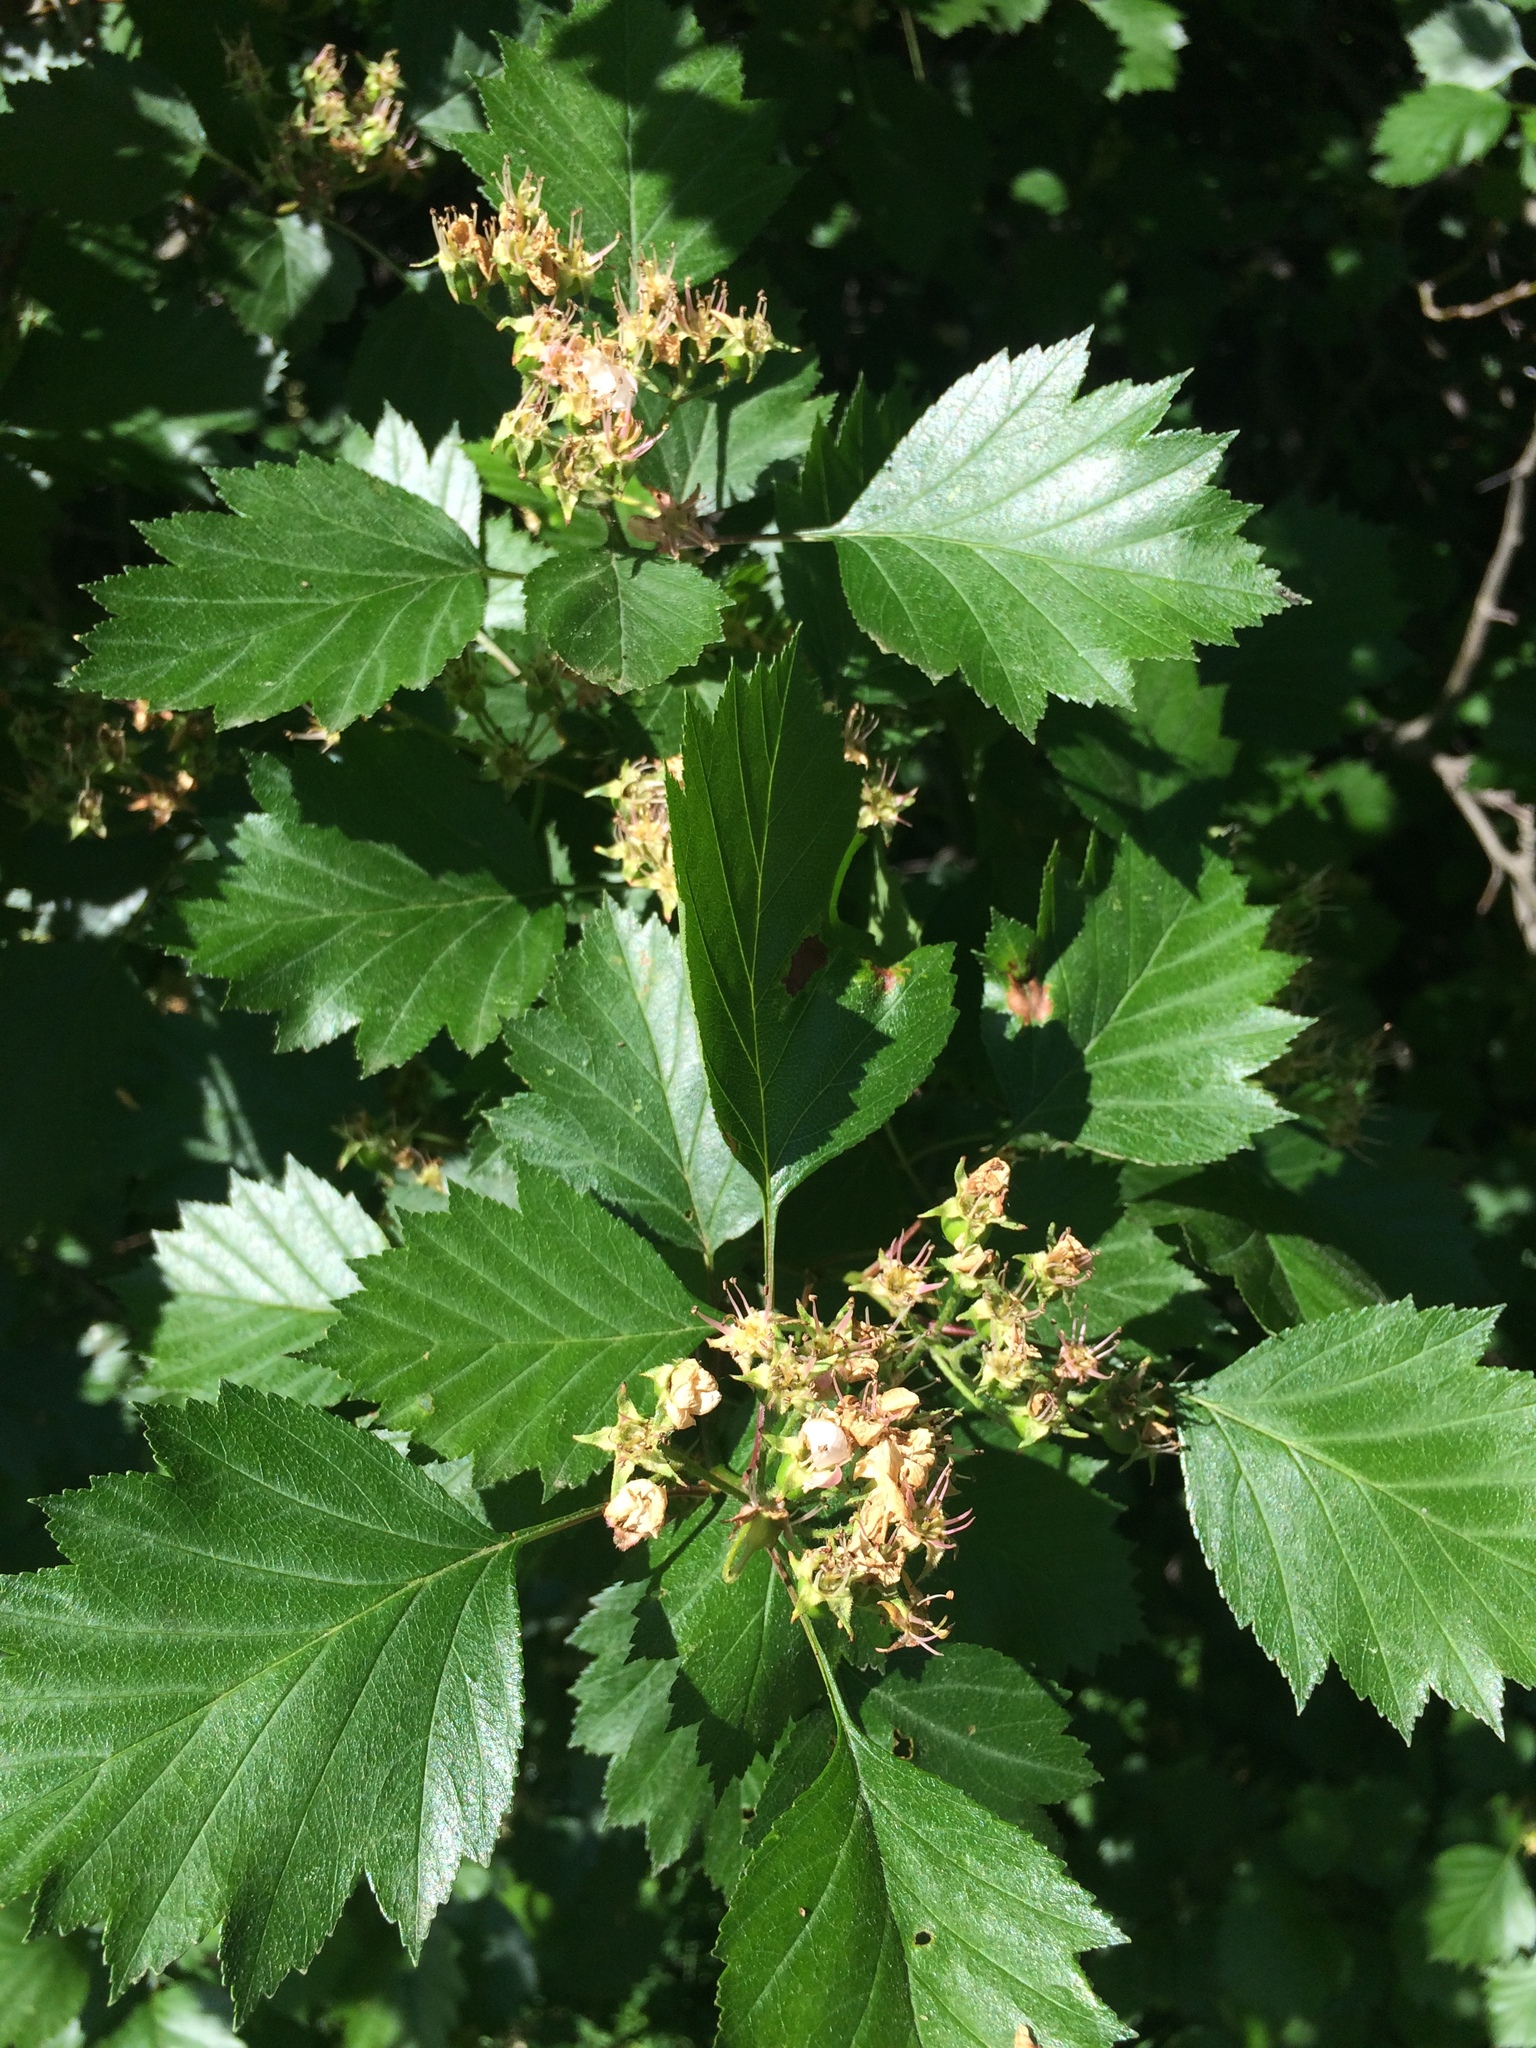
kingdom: Plantae
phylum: Tracheophyta
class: Magnoliopsida
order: Rosales
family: Rosaceae
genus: Crataegus
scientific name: Crataegus flabellata
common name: Bosc's hawthorn
